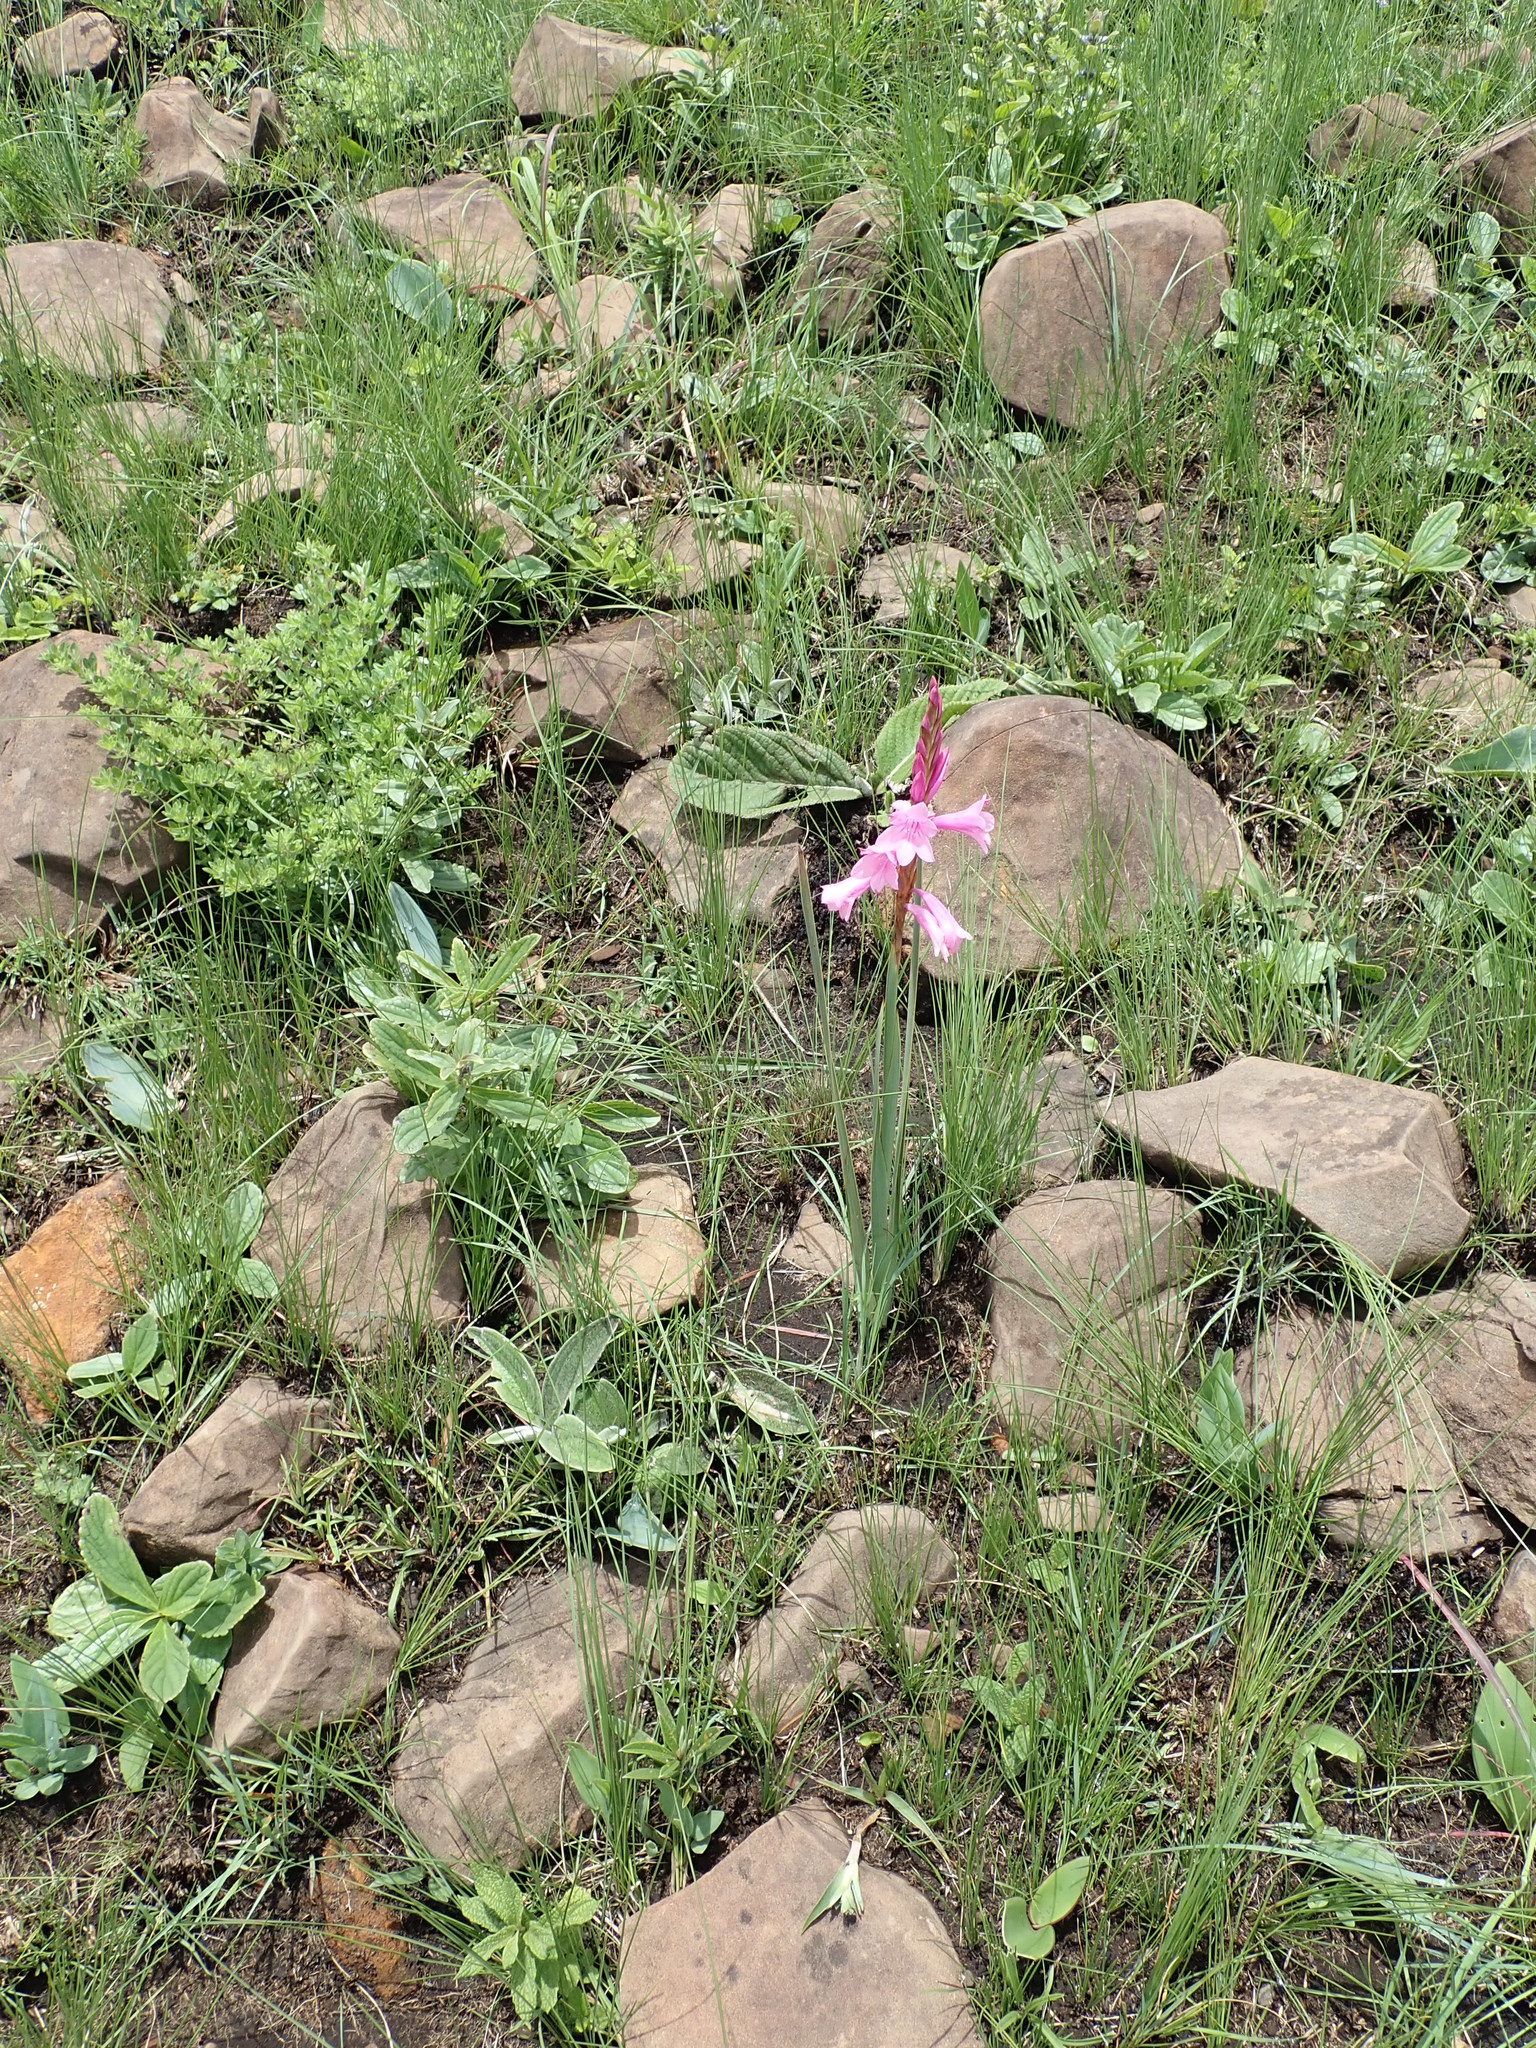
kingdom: Plantae
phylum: Tracheophyta
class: Liliopsida
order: Asparagales
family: Iridaceae
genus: Watsonia
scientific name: Watsonia lepida
